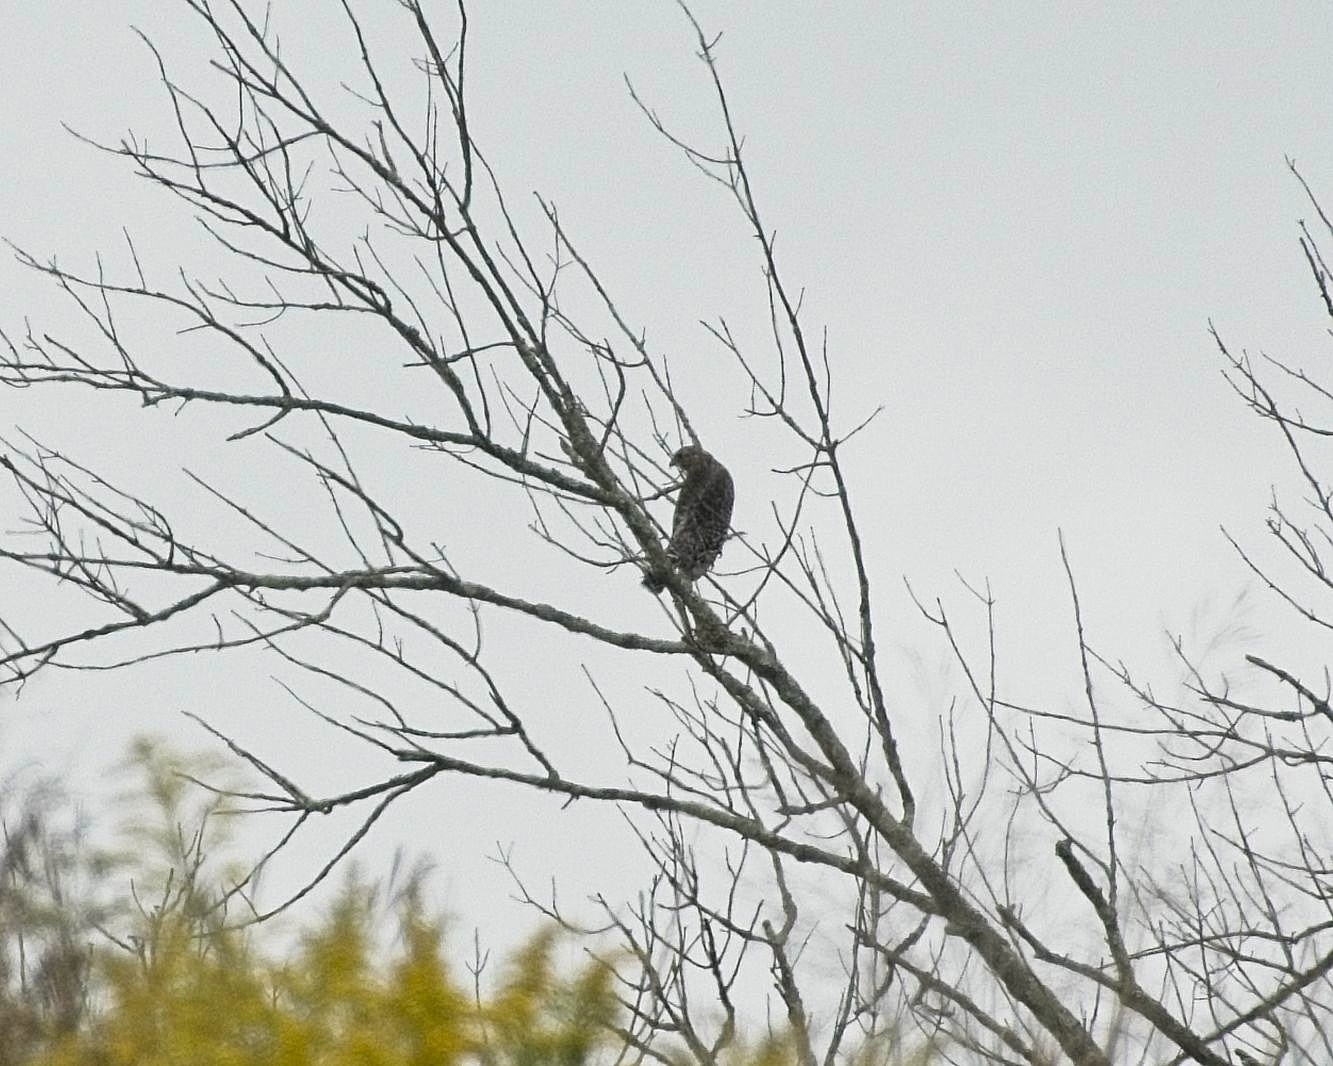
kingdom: Animalia
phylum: Chordata
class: Aves
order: Accipitriformes
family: Accipitridae
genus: Buteo
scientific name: Buteo lineatus
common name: Red-shouldered hawk
